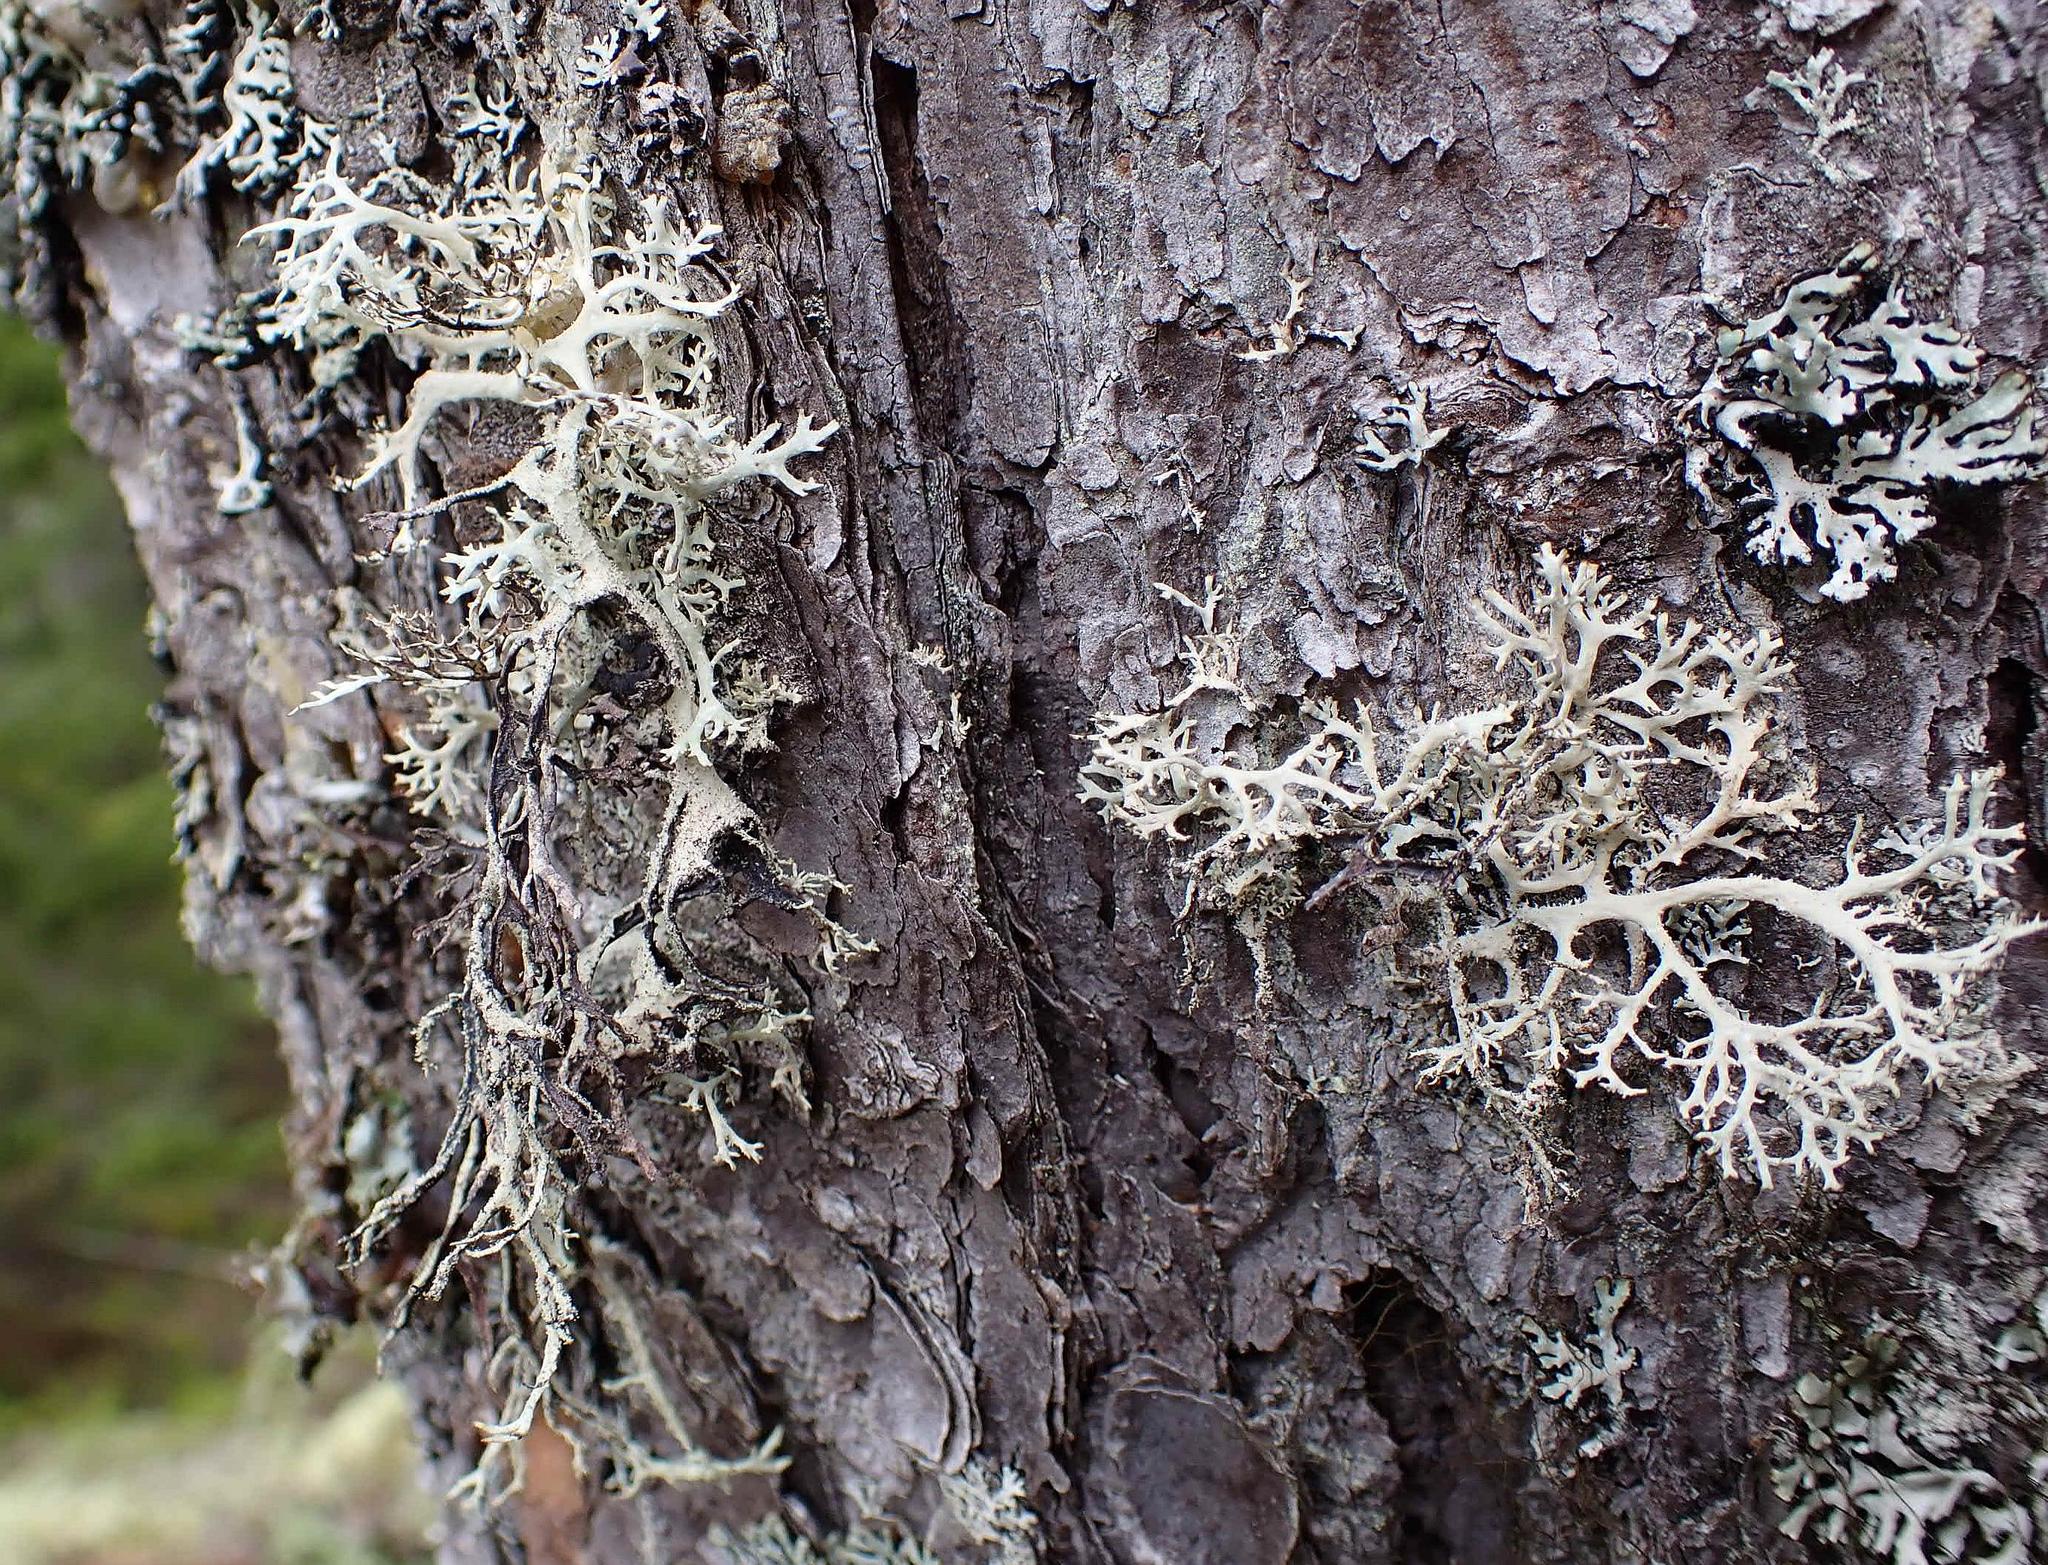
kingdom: Fungi
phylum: Ascomycota
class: Lecanoromycetes
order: Lecanorales
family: Parmeliaceae
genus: Pseudevernia
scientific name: Pseudevernia consocians
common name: Common antler lichen
